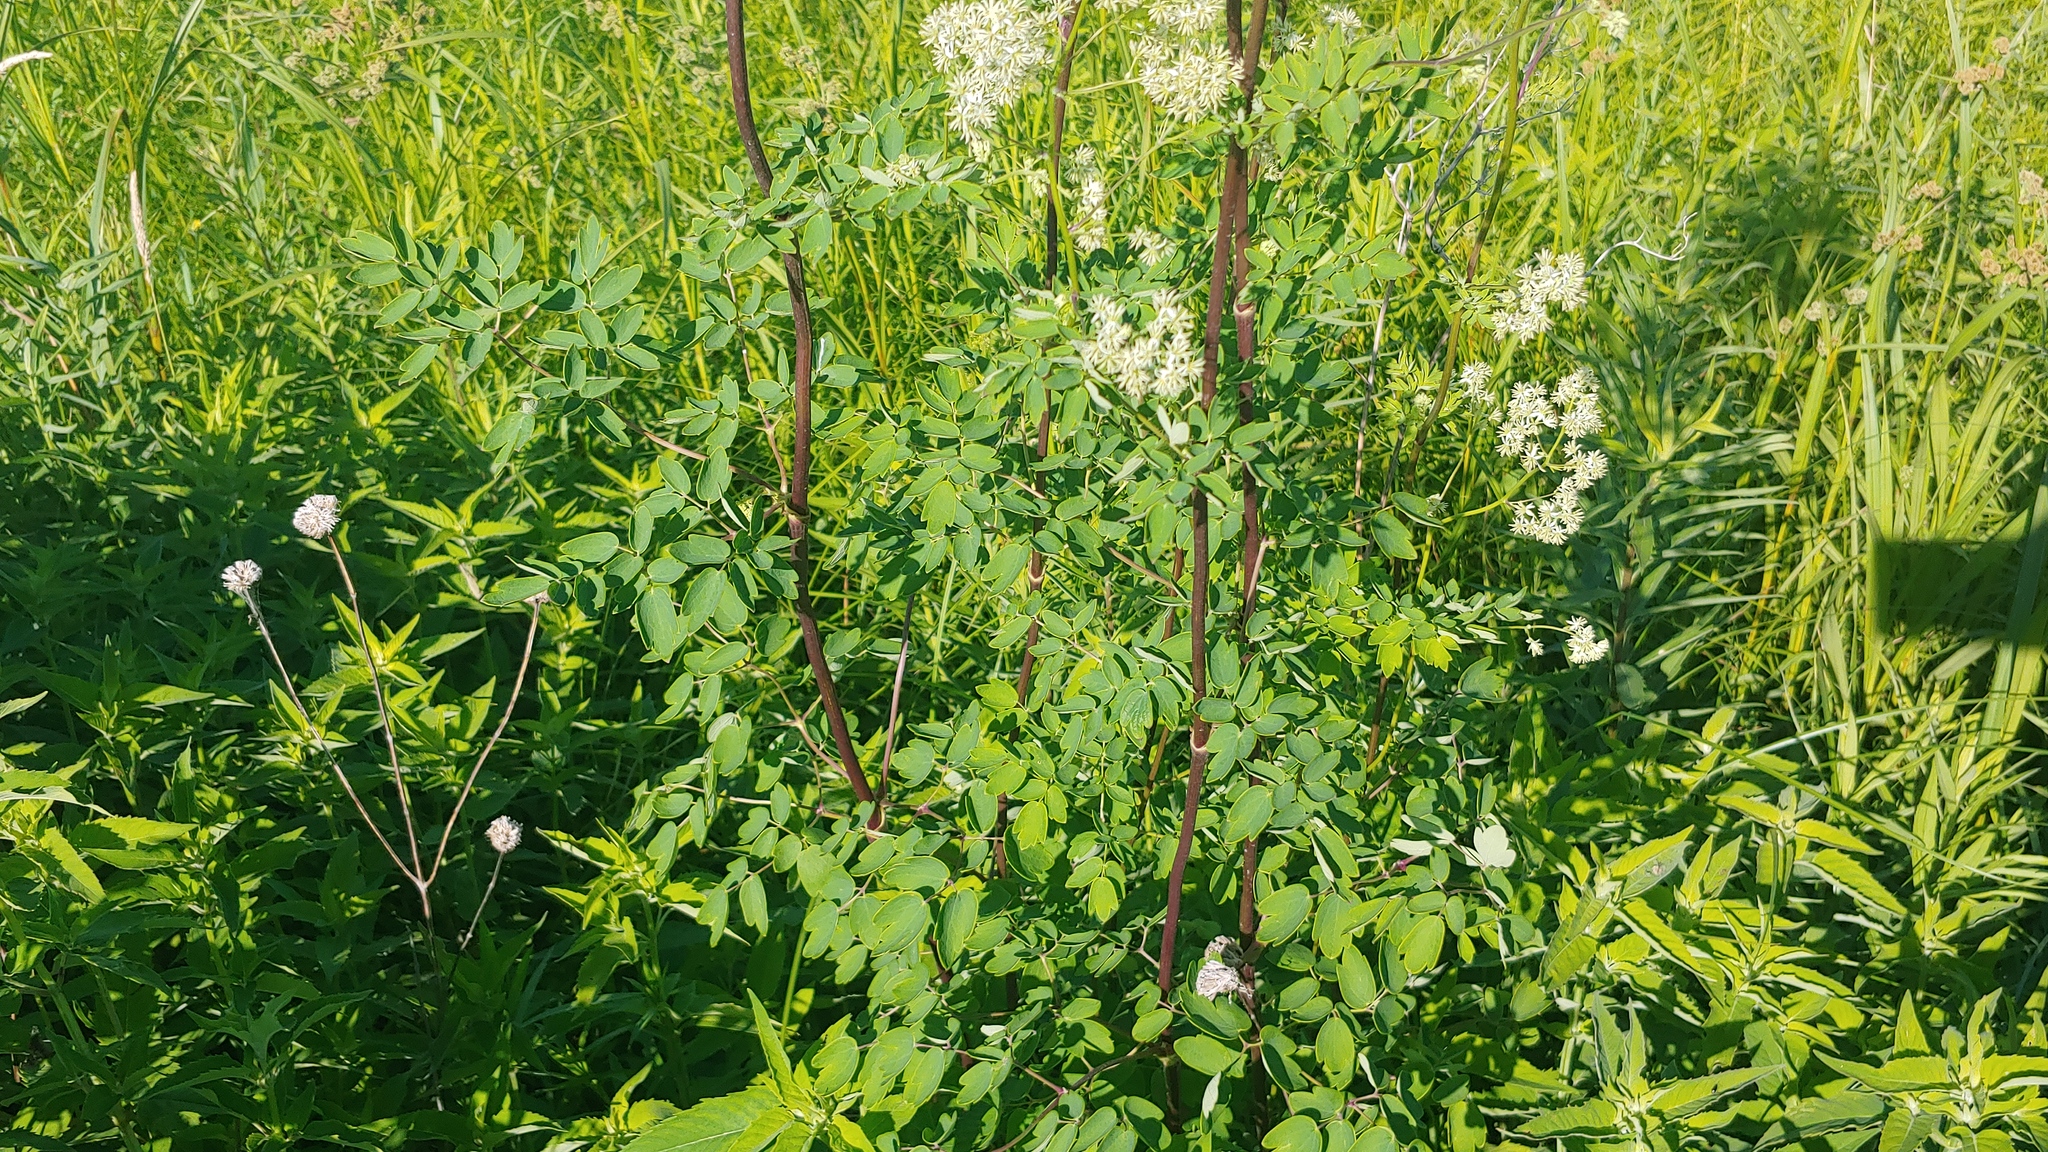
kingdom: Plantae
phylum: Tracheophyta
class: Magnoliopsida
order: Ranunculales
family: Ranunculaceae
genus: Thalictrum
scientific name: Thalictrum dasycarpum
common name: Purple meadow-rue
